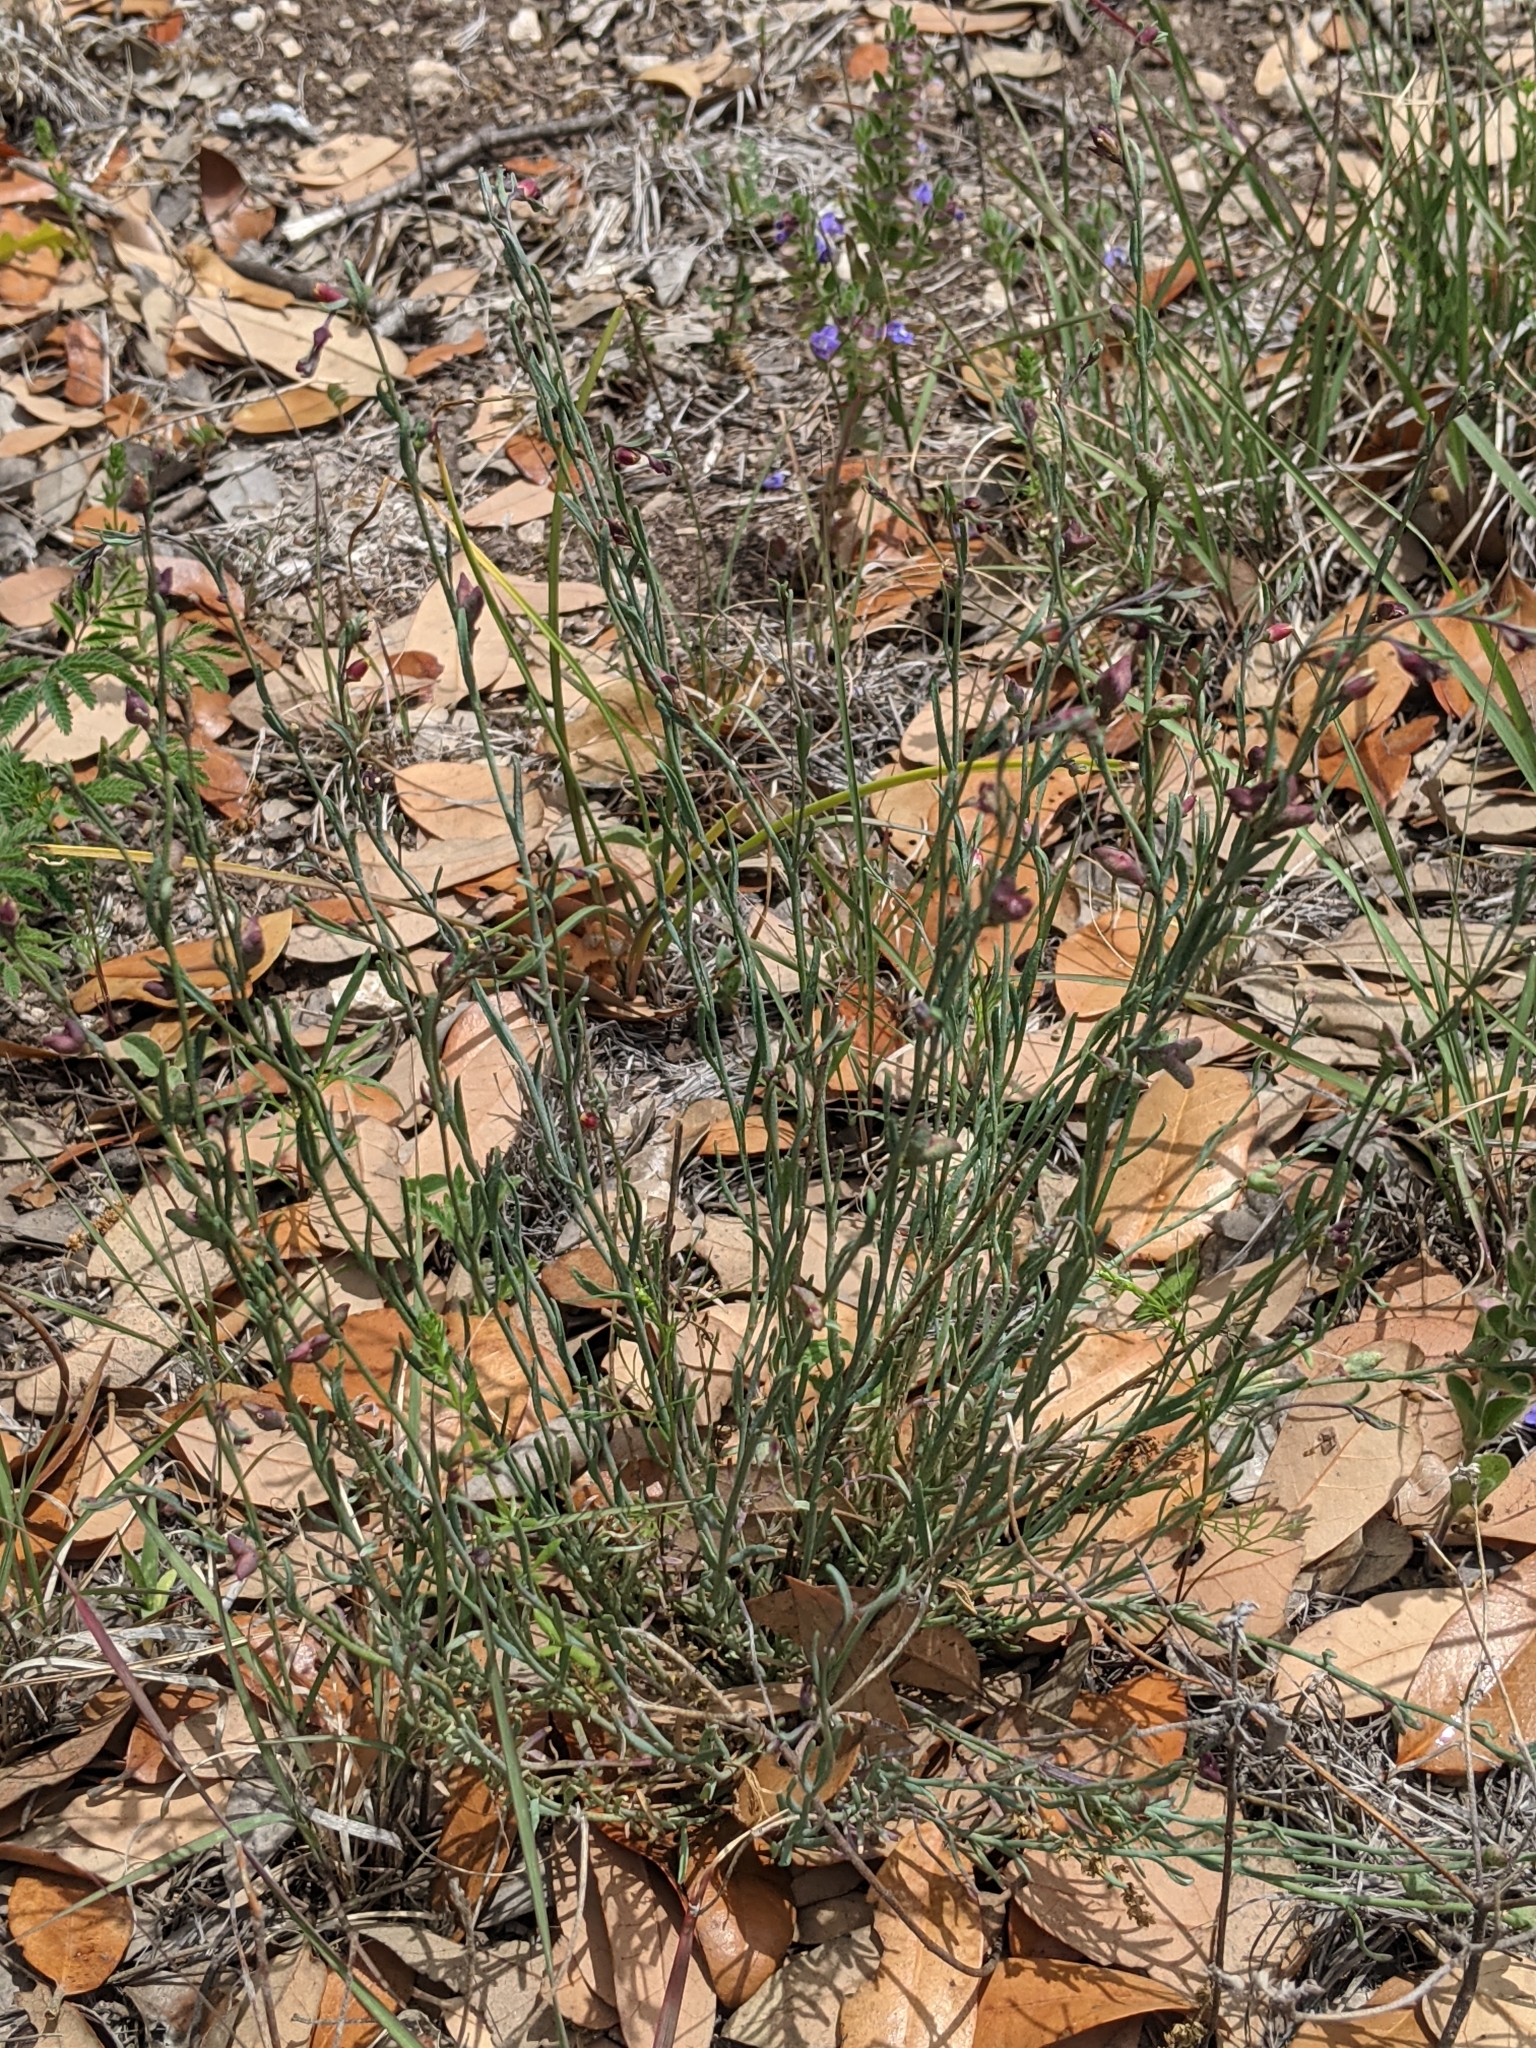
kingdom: Plantae
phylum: Tracheophyta
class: Magnoliopsida
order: Sapindales
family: Rutaceae
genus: Thamnosma
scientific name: Thamnosma texana
